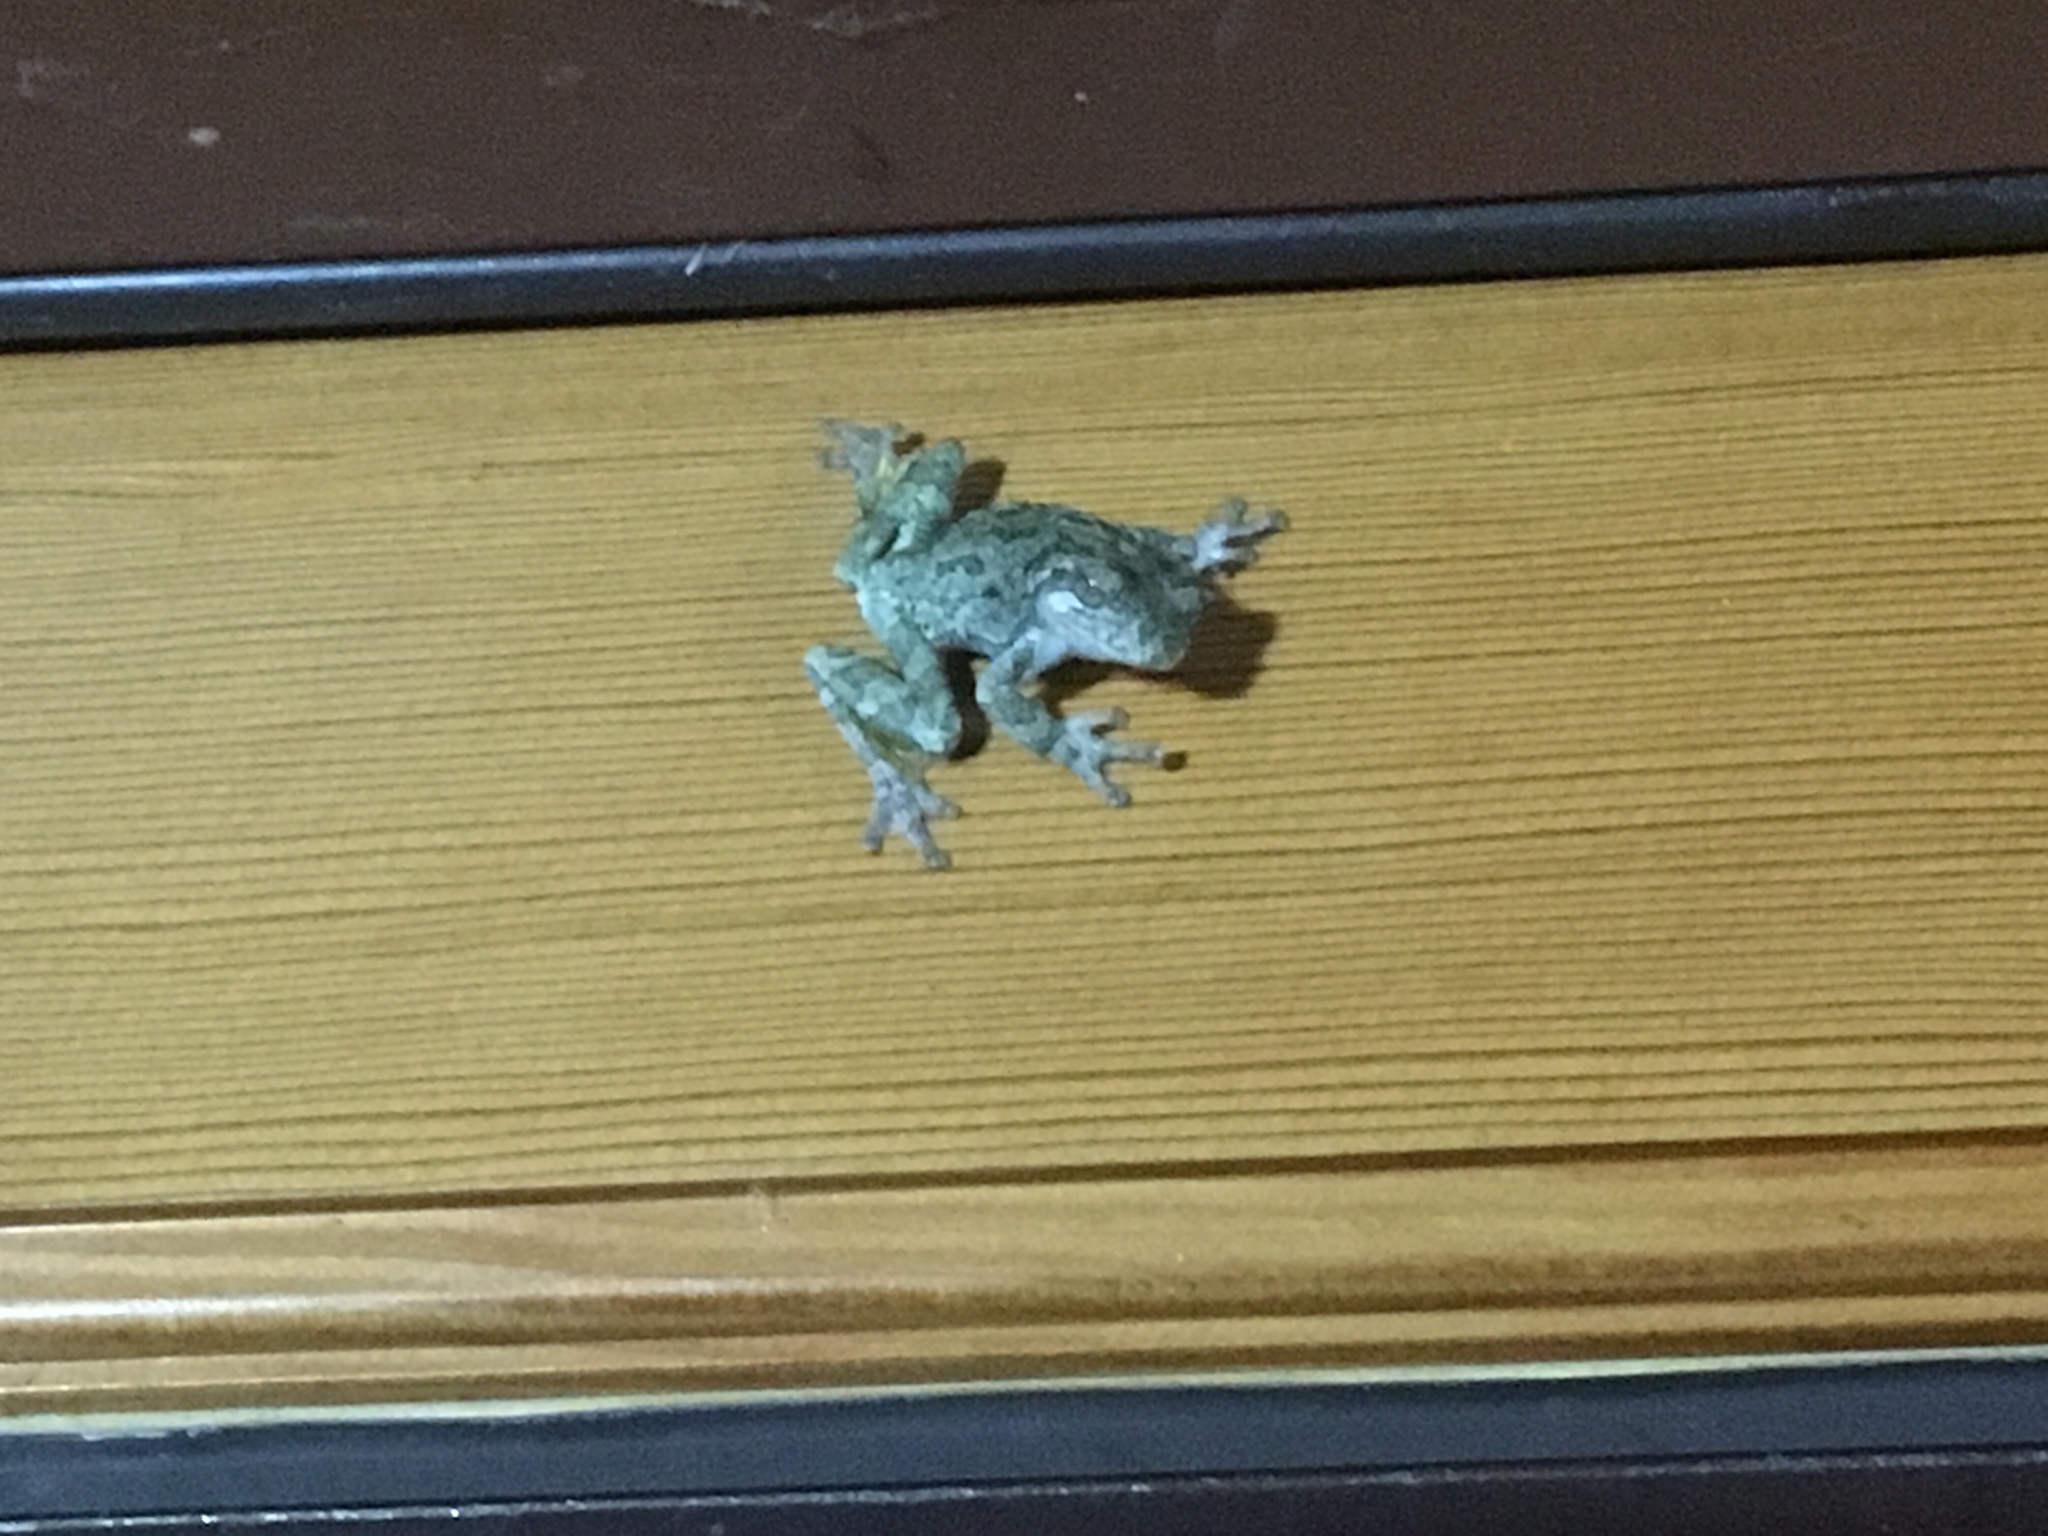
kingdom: Animalia
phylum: Chordata
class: Amphibia
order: Anura
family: Hylidae
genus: Hyla
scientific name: Hyla
